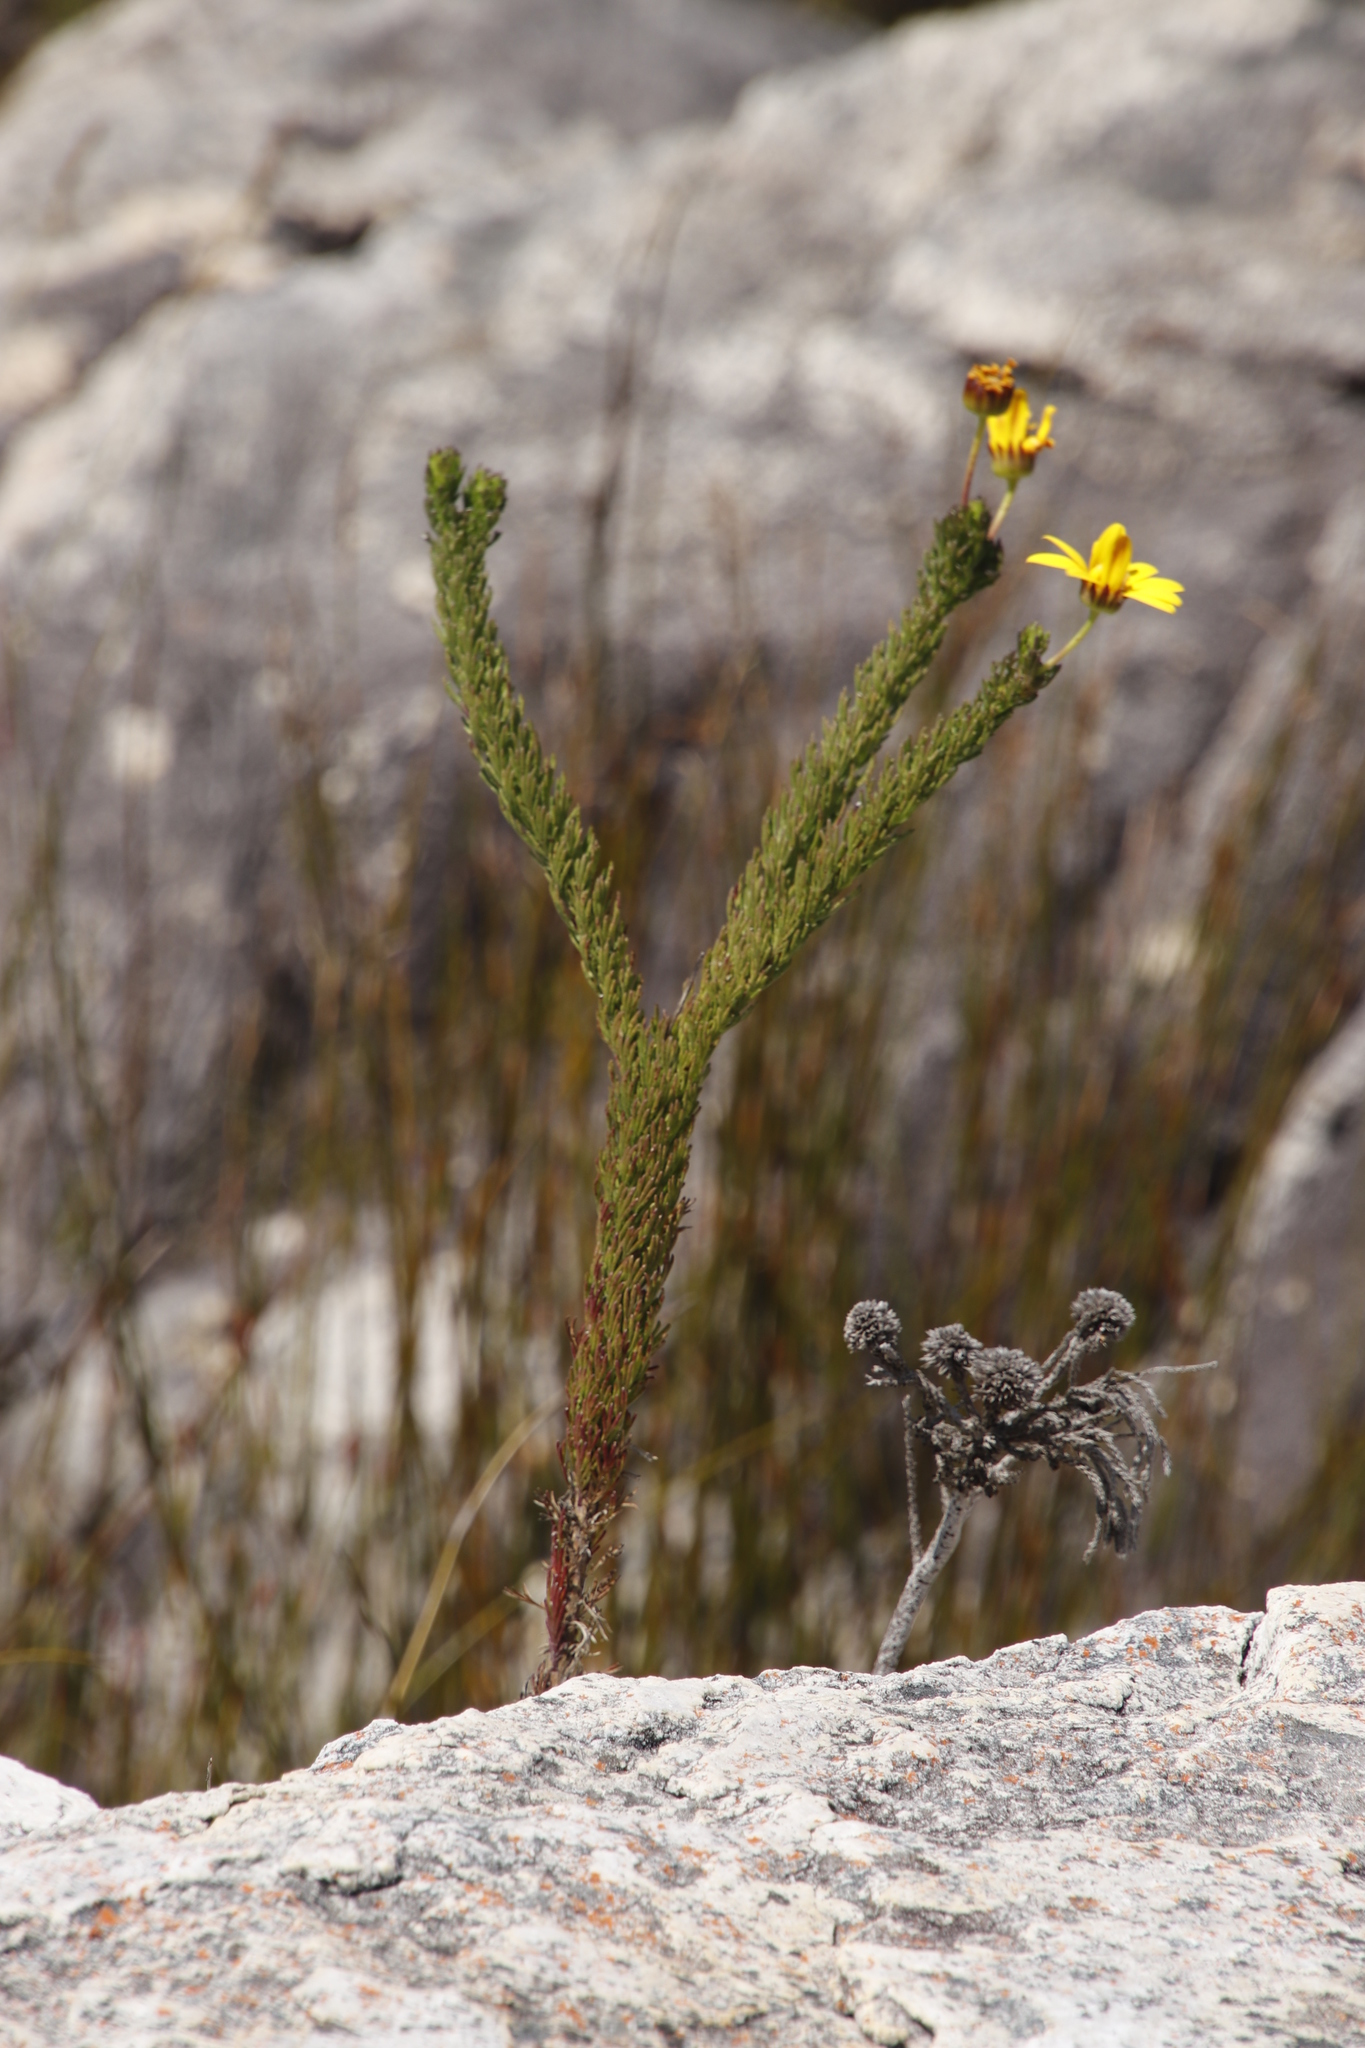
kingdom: Plantae
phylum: Tracheophyta
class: Magnoliopsida
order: Asterales
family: Asteraceae
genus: Euryops
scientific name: Euryops abrotanifolius
